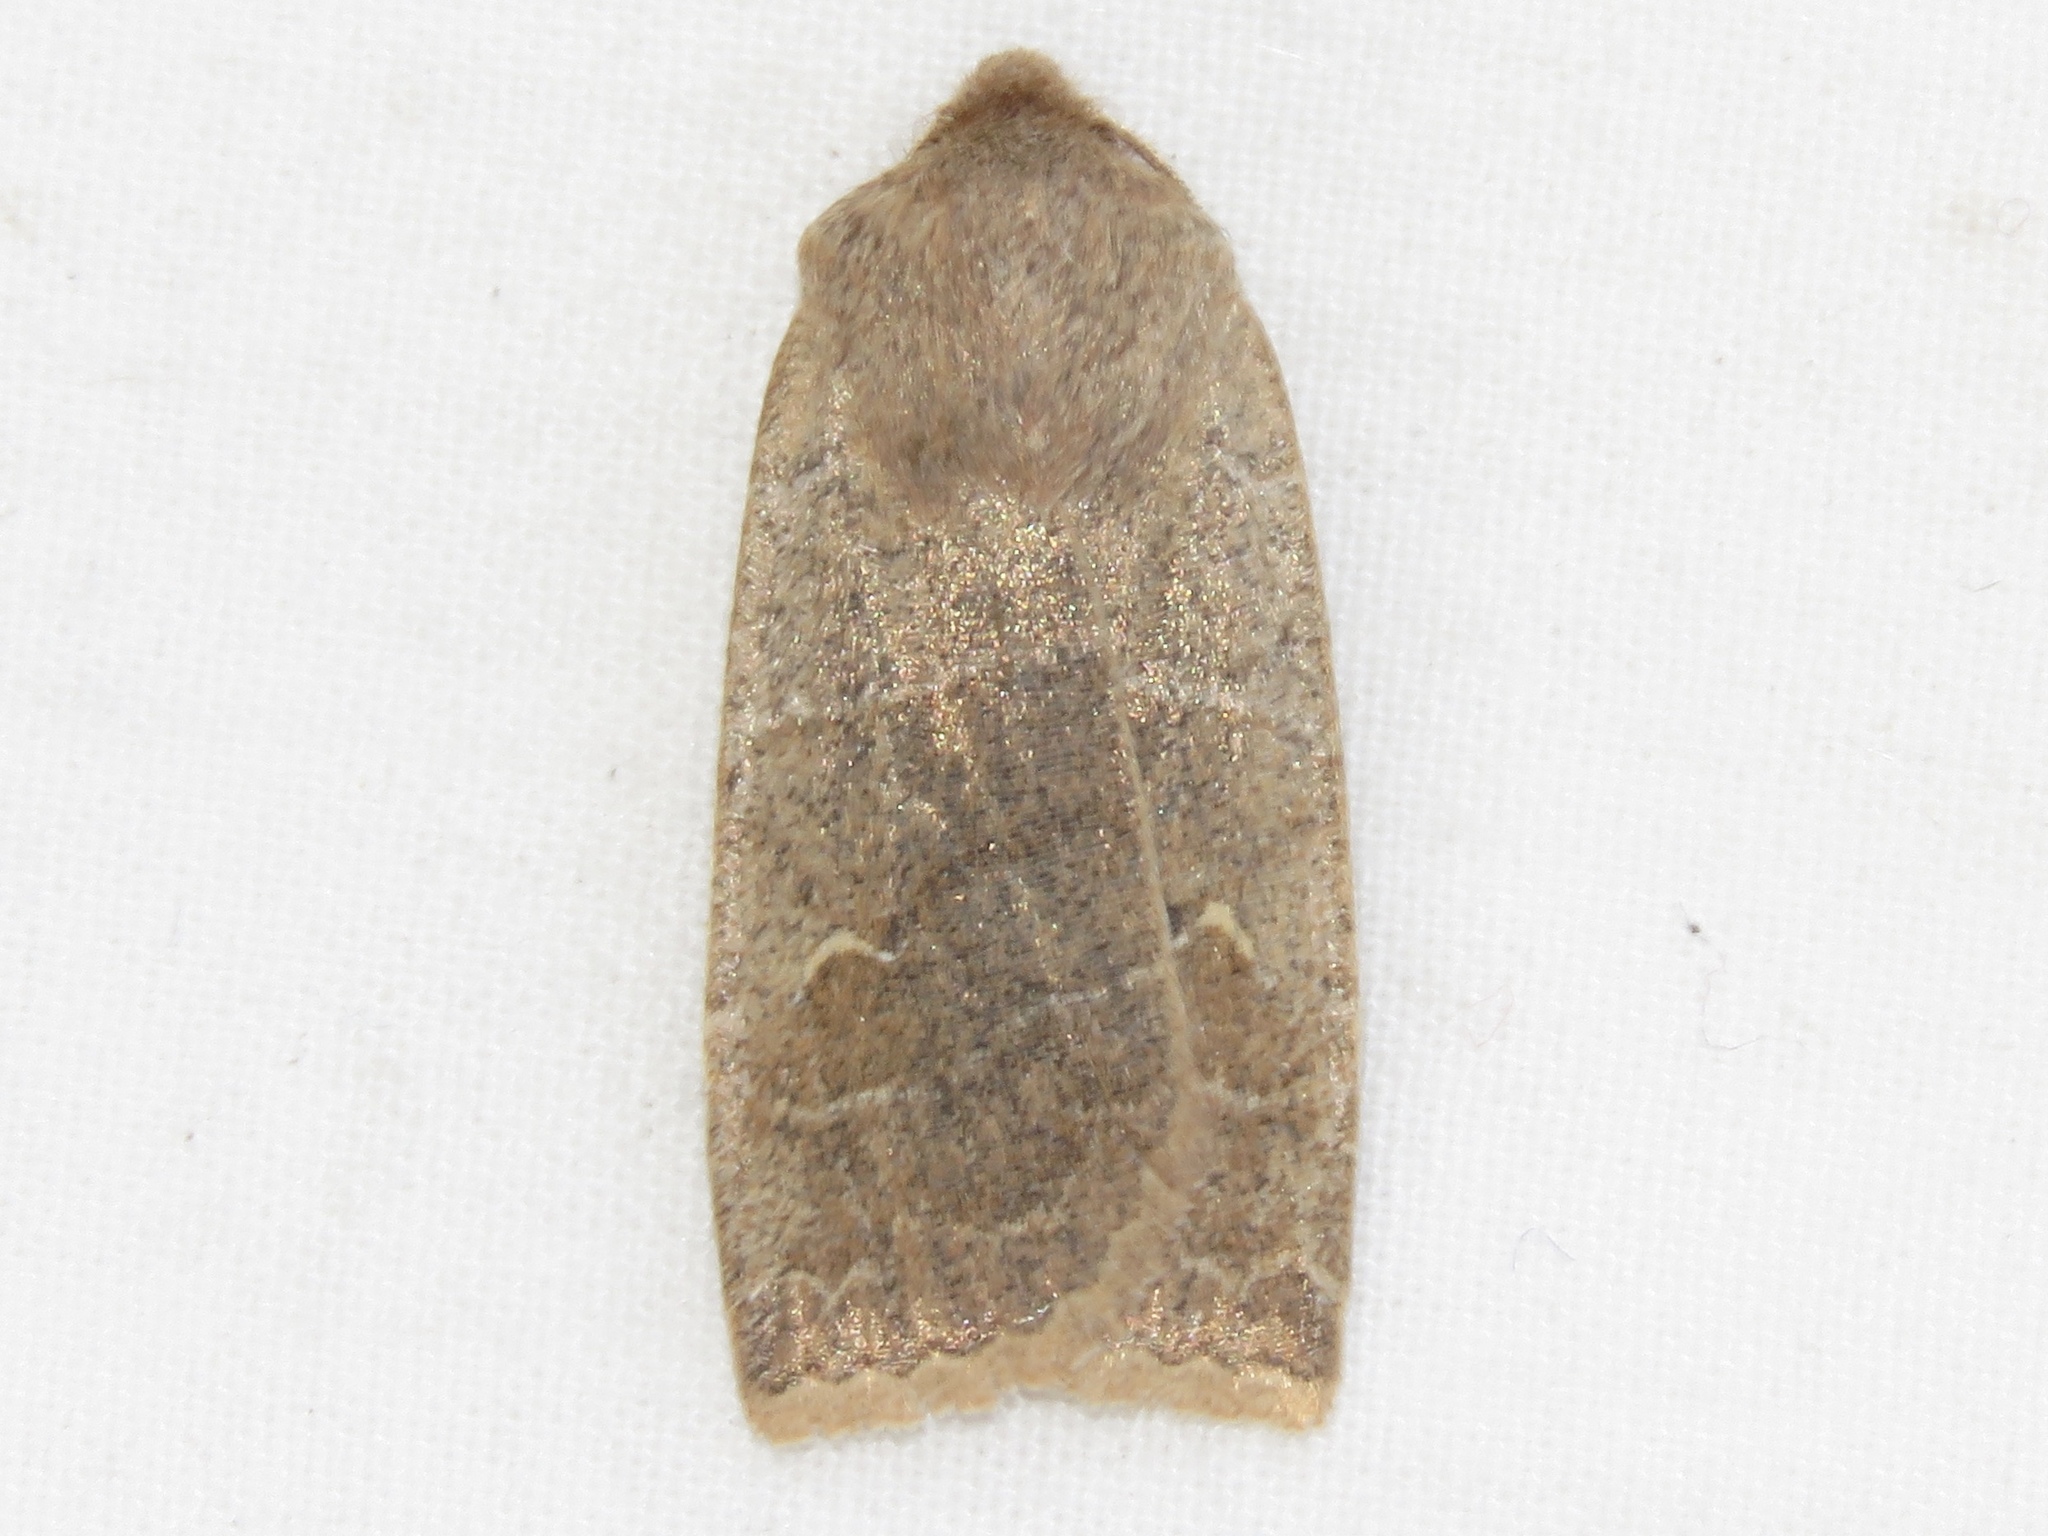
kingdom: Animalia
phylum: Arthropoda
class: Insecta
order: Lepidoptera
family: Noctuidae
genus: Eupsilia
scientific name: Eupsilia morrisoni
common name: Morrison's sallow
